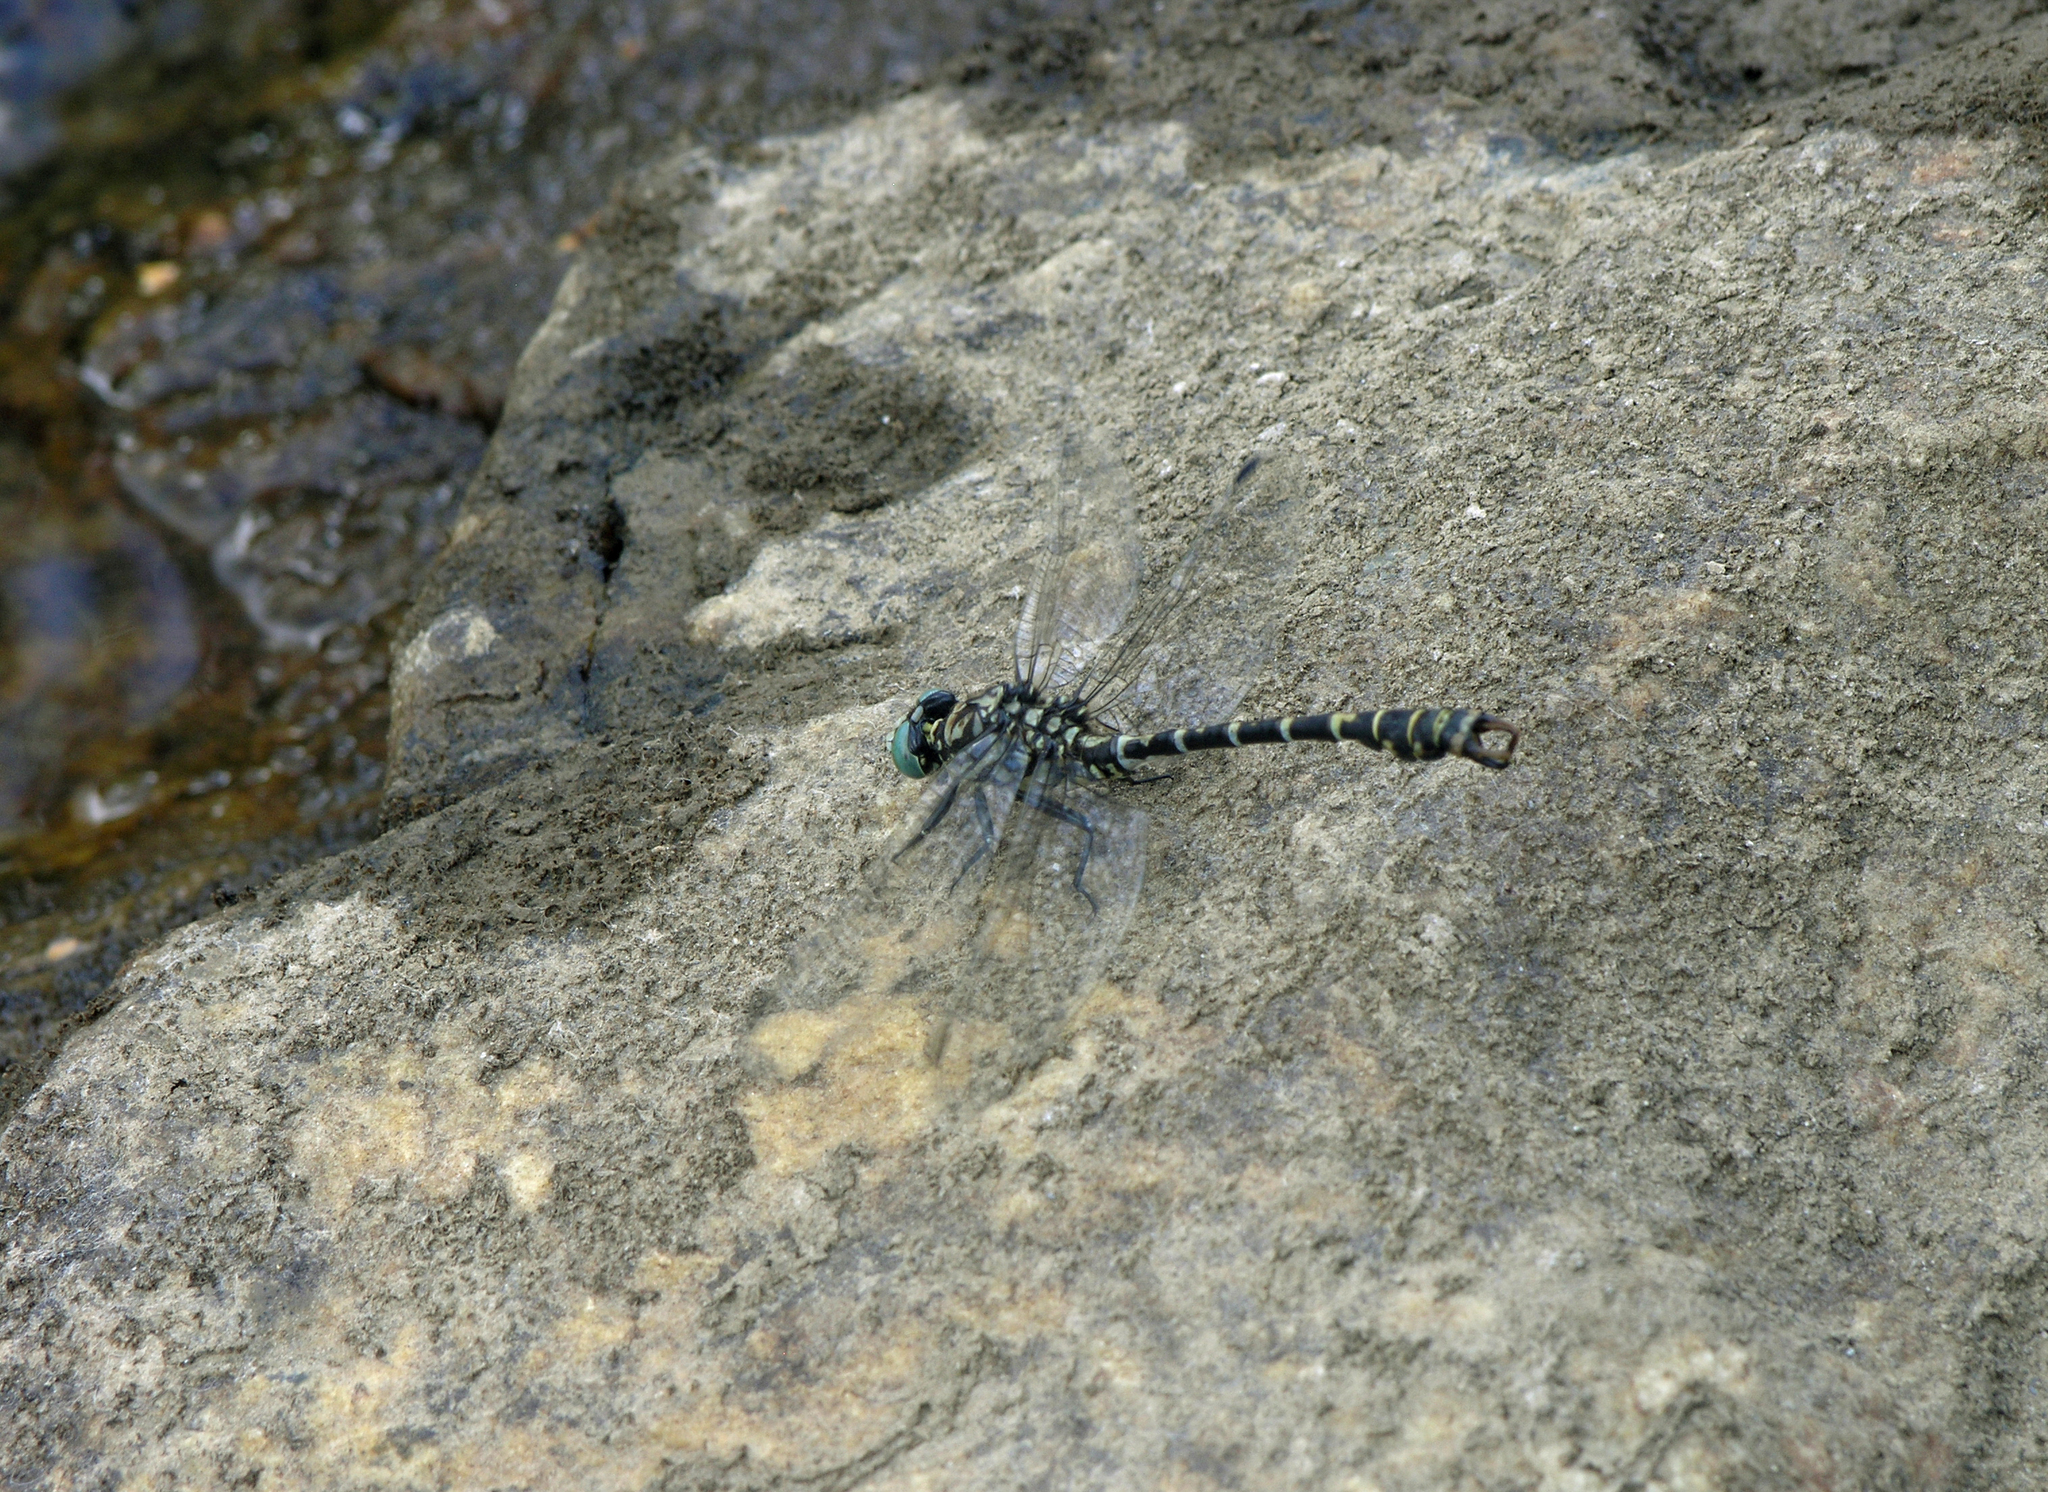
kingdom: Animalia
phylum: Arthropoda
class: Insecta
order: Odonata
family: Gomphidae
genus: Onychogomphus
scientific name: Onychogomphus forcipatus
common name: Small pincertail
